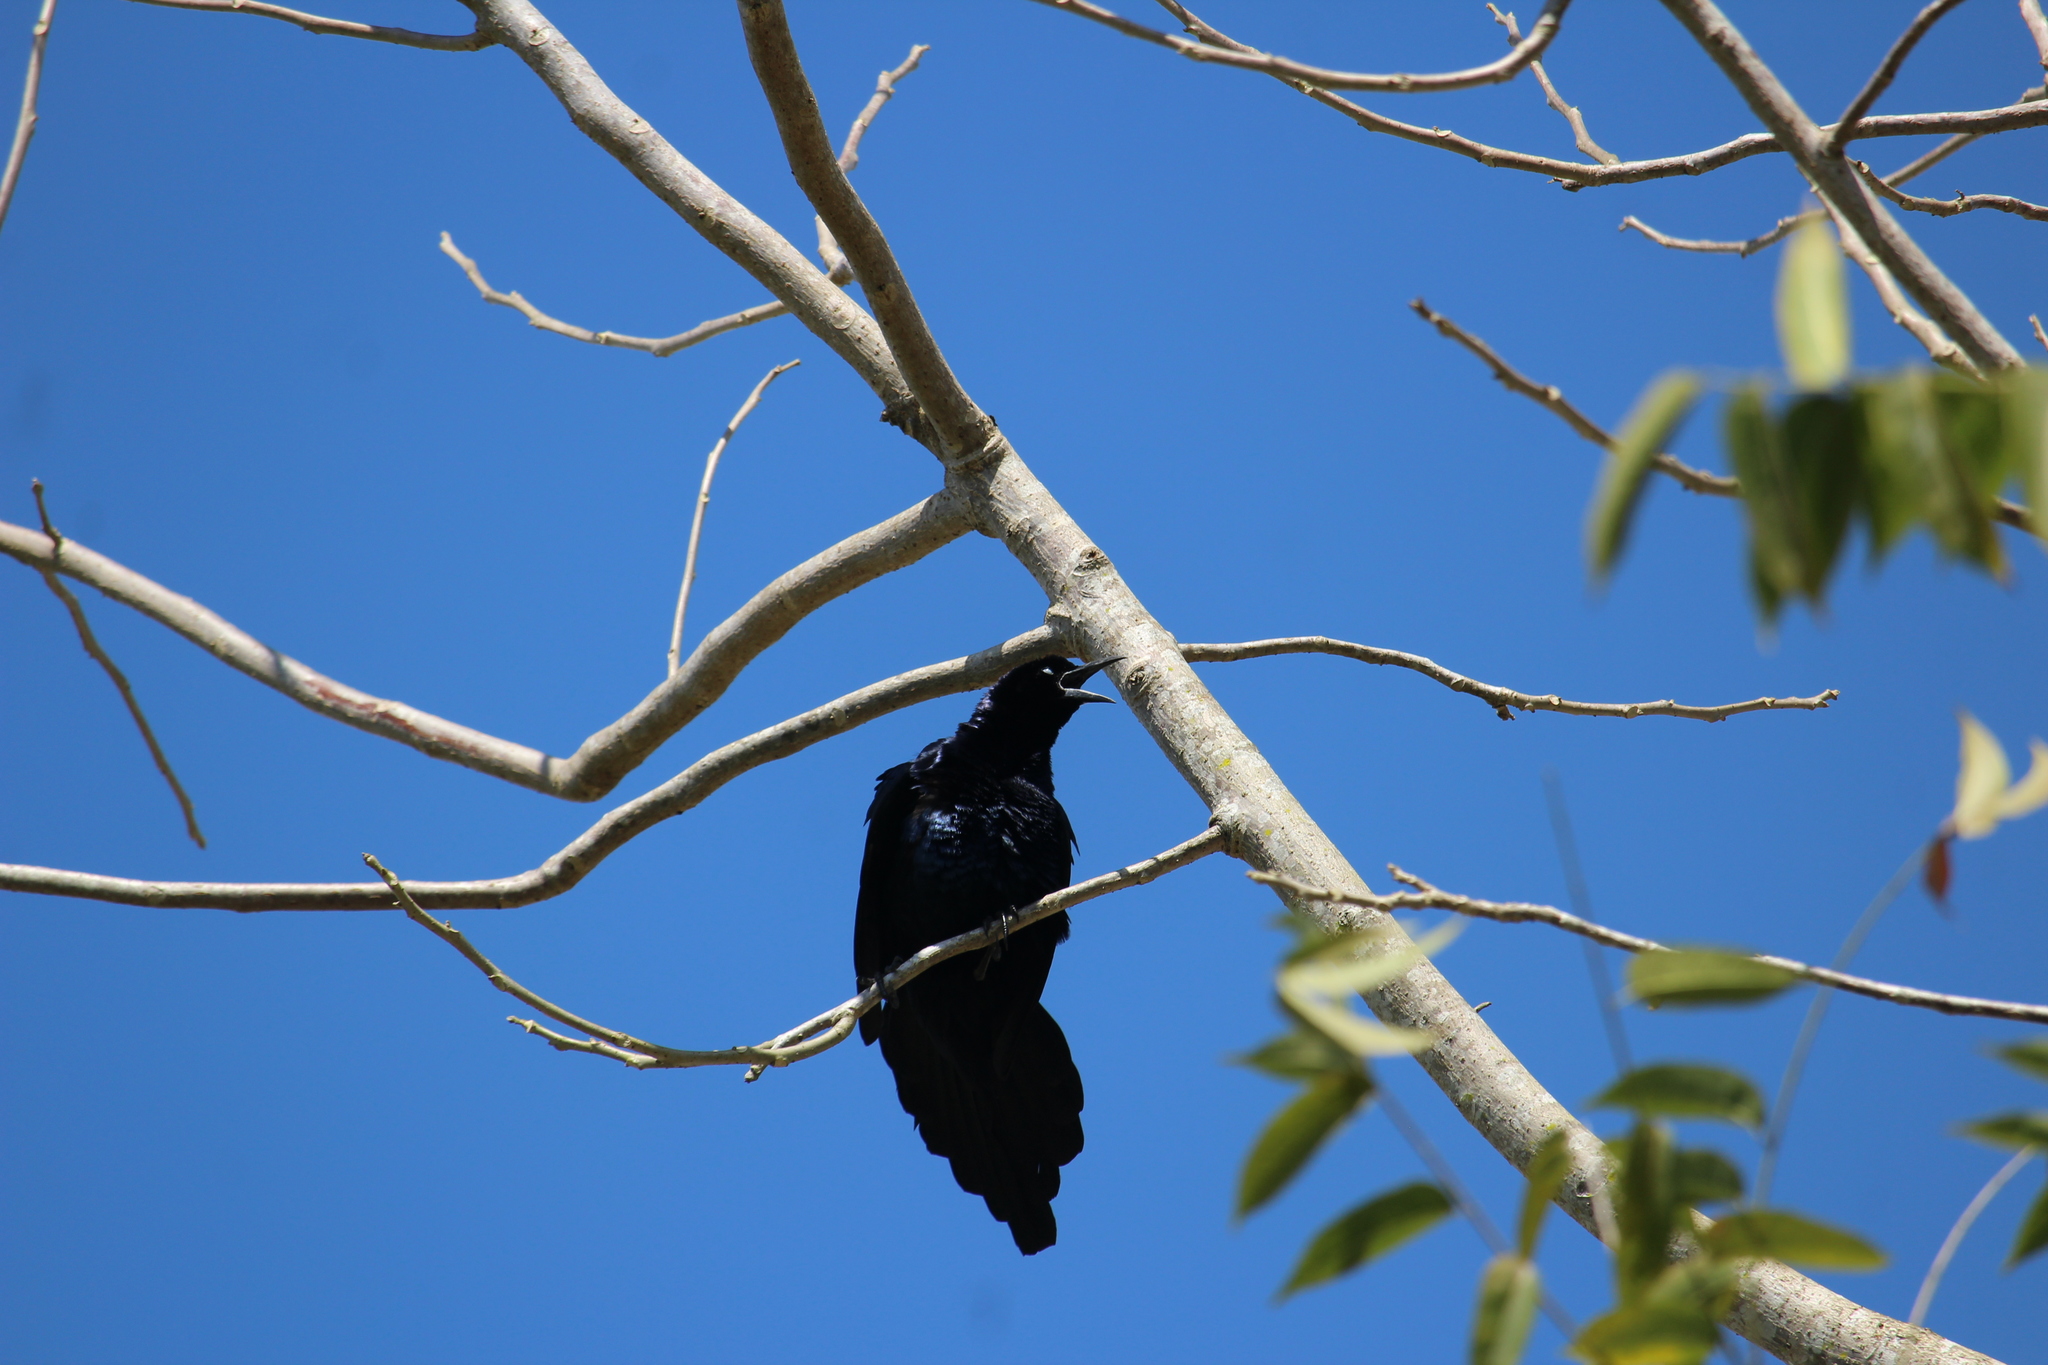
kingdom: Animalia
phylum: Chordata
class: Aves
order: Passeriformes
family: Icteridae
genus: Quiscalus
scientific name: Quiscalus mexicanus
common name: Great-tailed grackle
